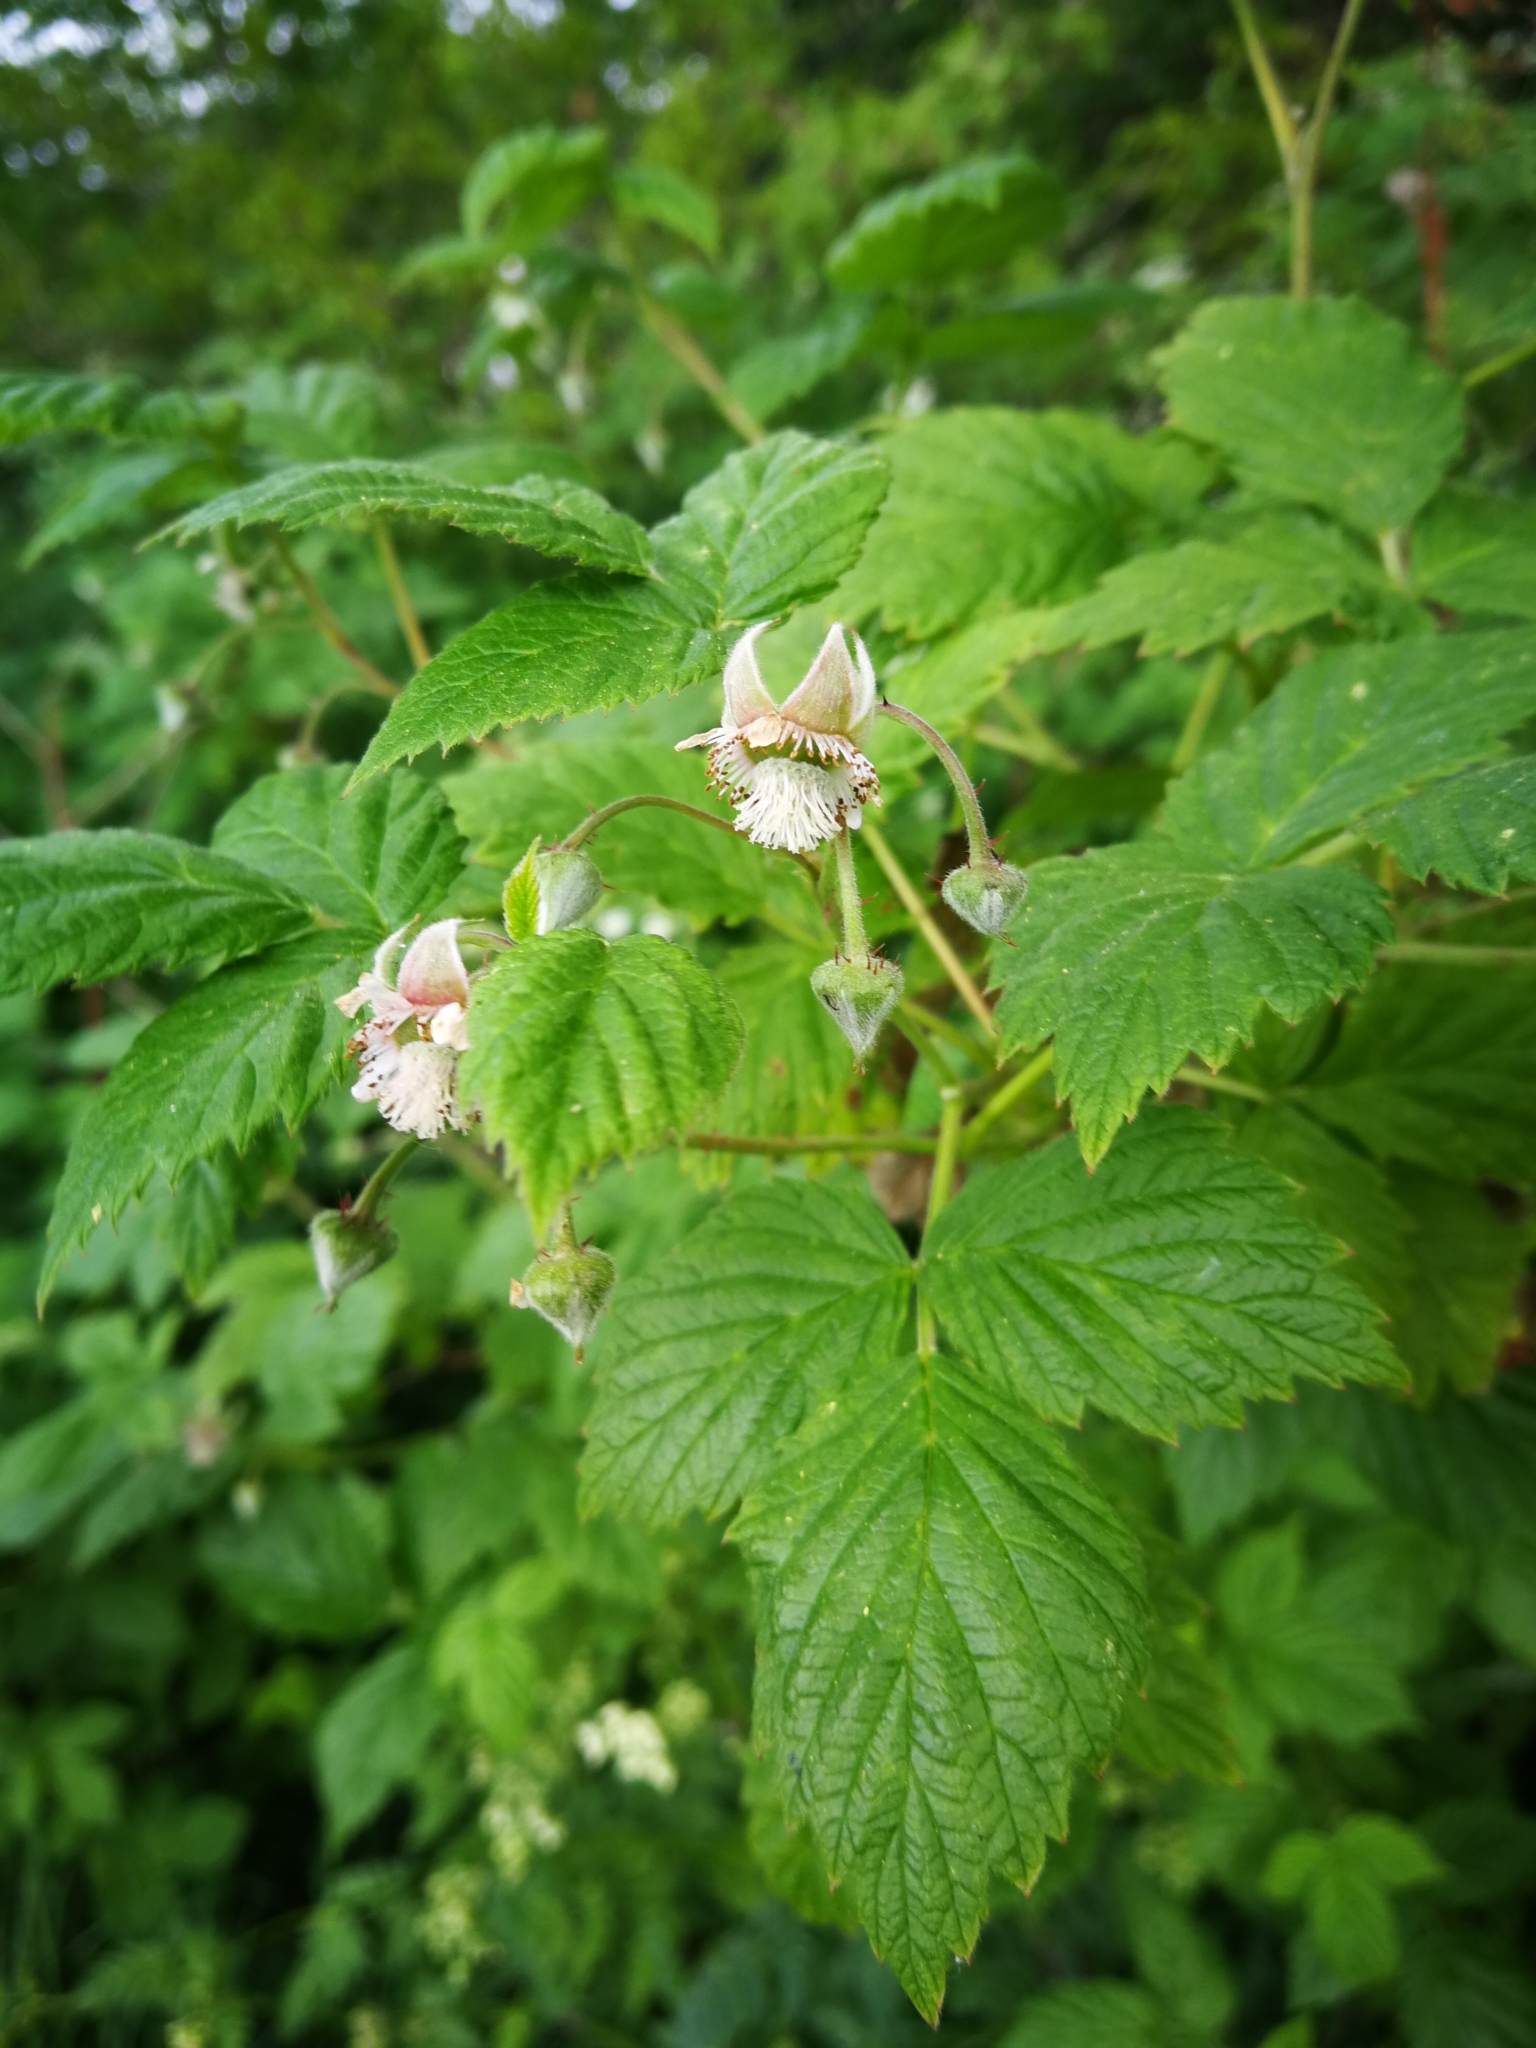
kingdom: Plantae
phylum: Tracheophyta
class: Magnoliopsida
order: Rosales
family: Rosaceae
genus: Rubus
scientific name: Rubus idaeus
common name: Raspberry
